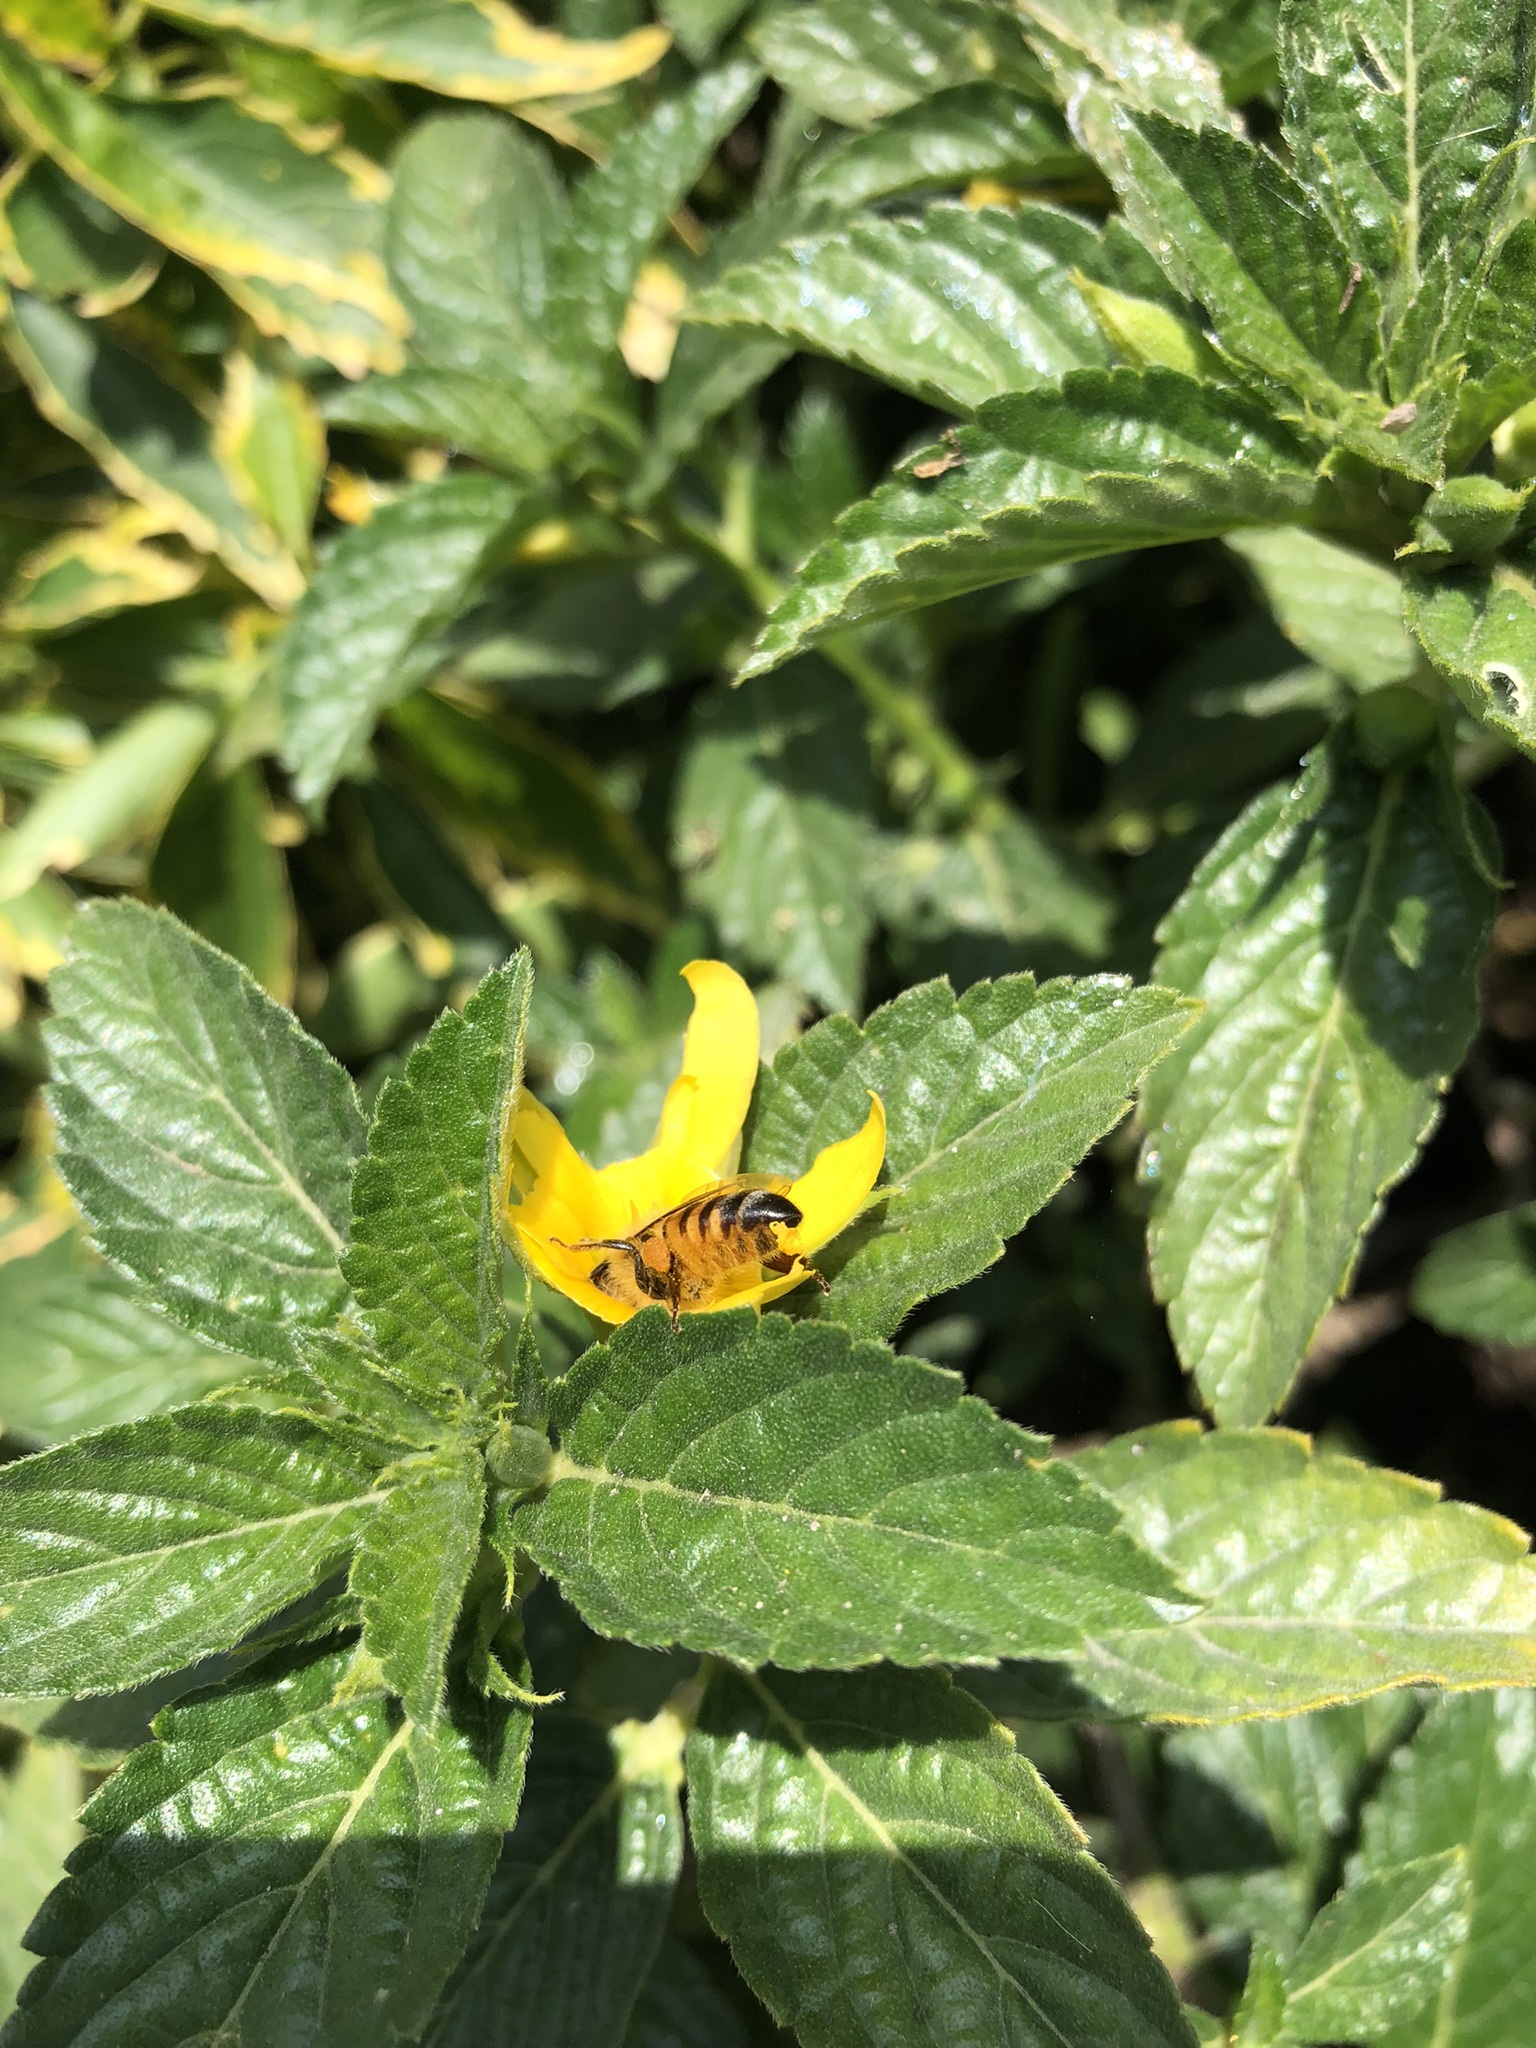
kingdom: Animalia
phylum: Arthropoda
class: Insecta
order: Hymenoptera
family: Apidae
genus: Apis
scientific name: Apis mellifera
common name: Honey bee
